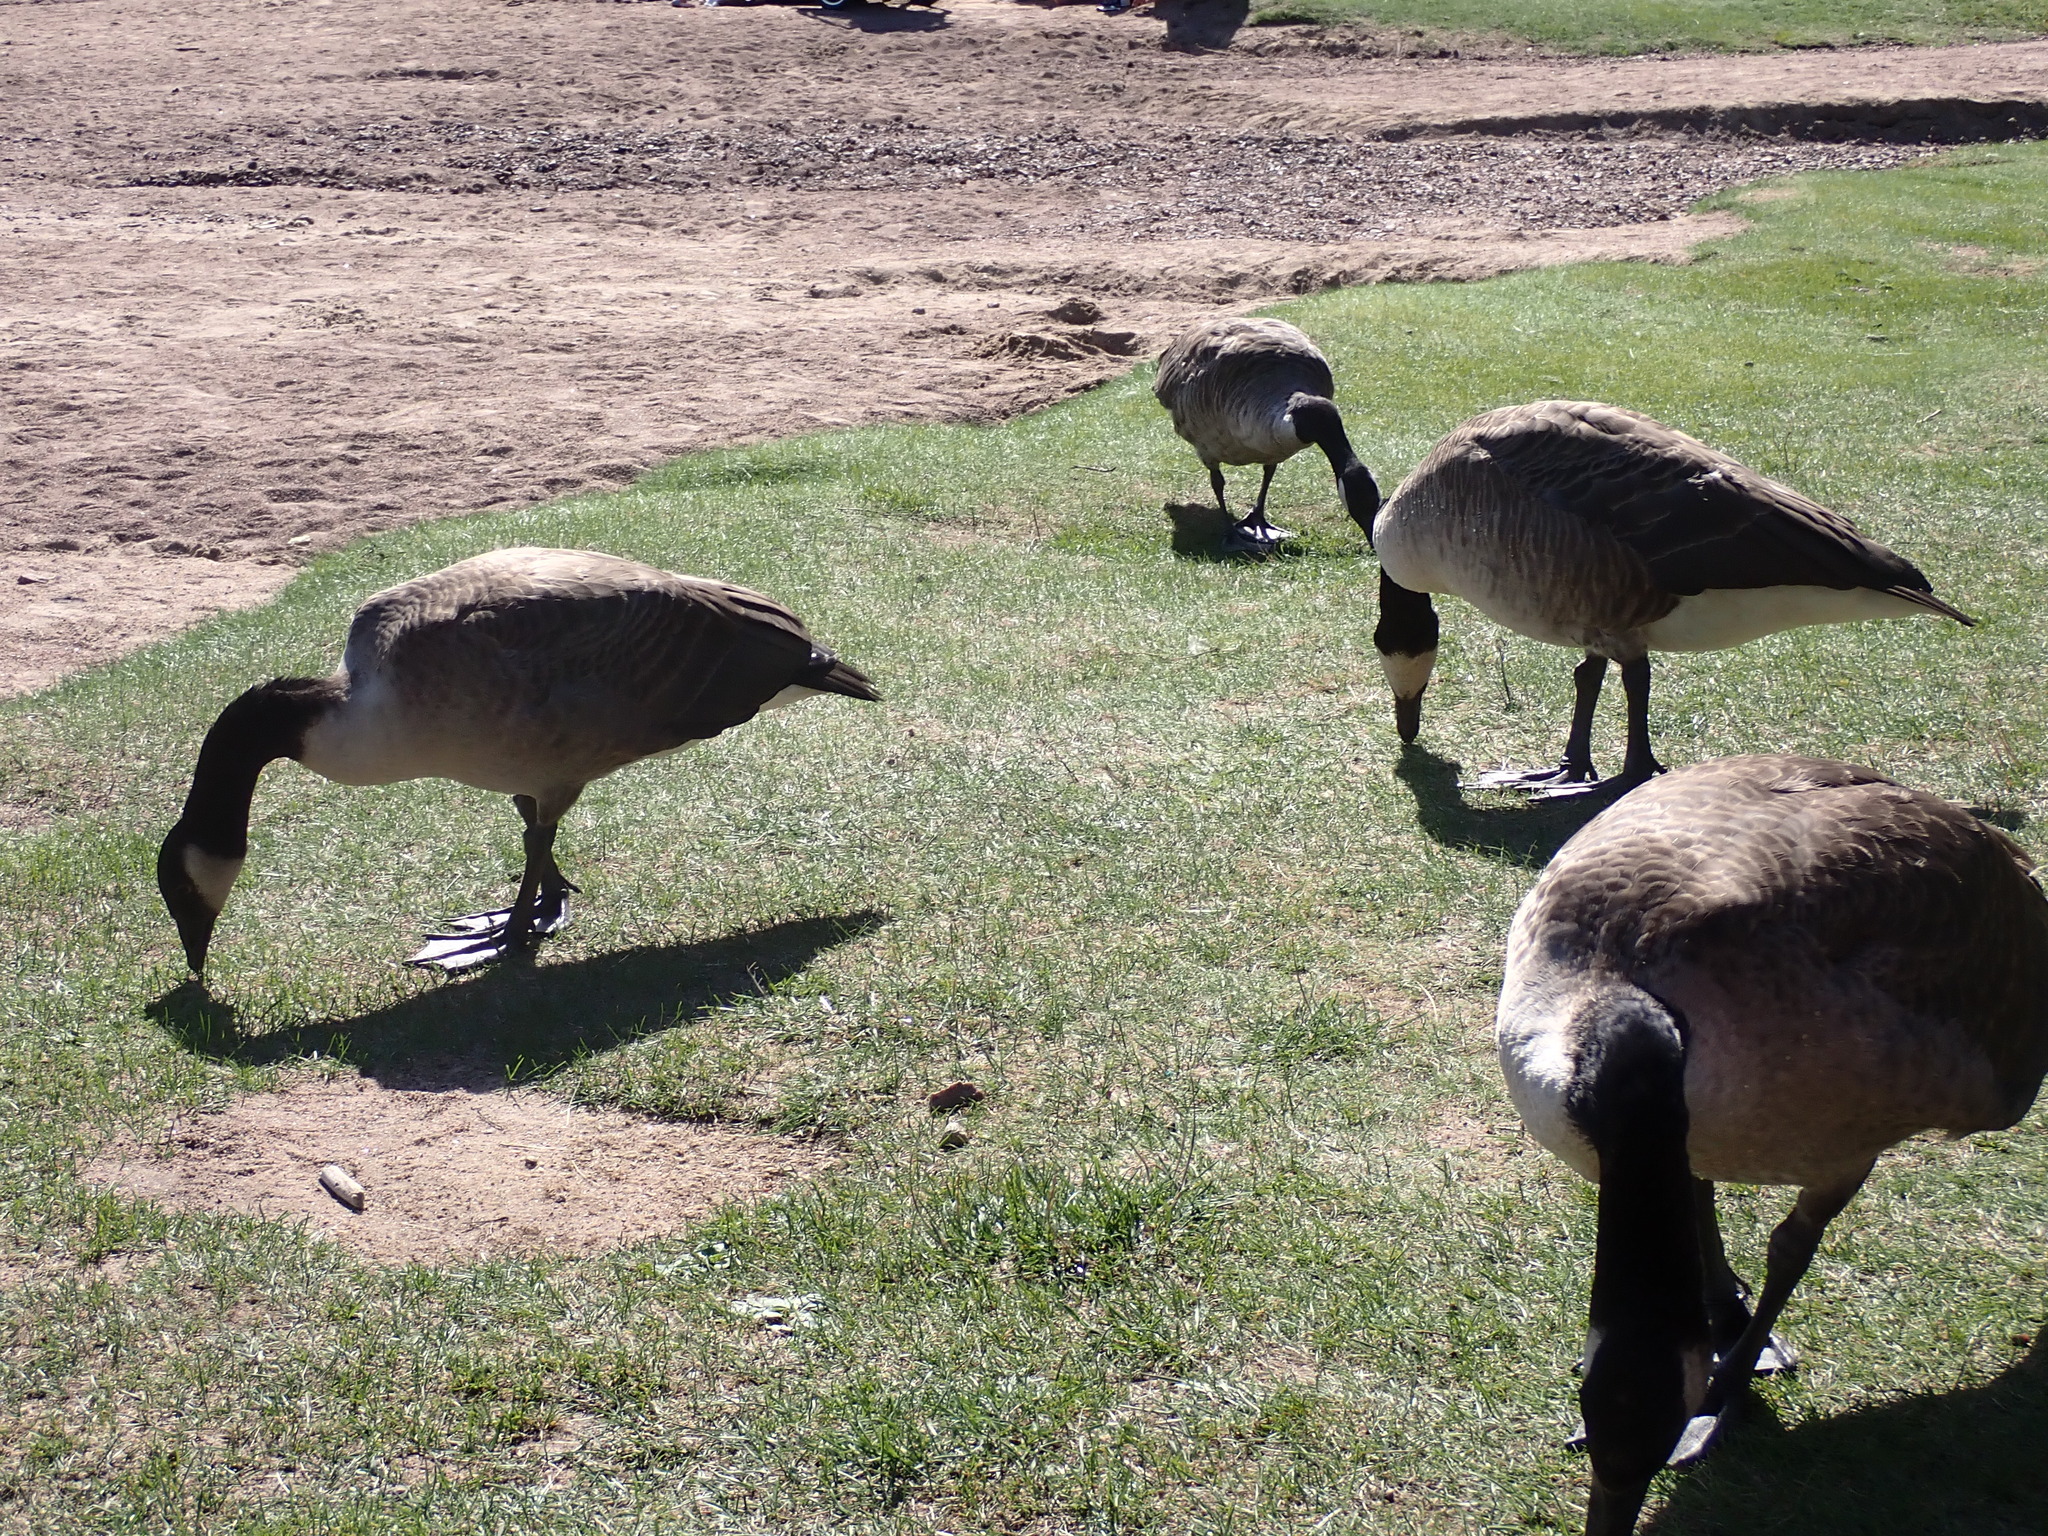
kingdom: Animalia
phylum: Chordata
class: Aves
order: Anseriformes
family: Anatidae
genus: Branta
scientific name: Branta canadensis
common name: Canada goose
